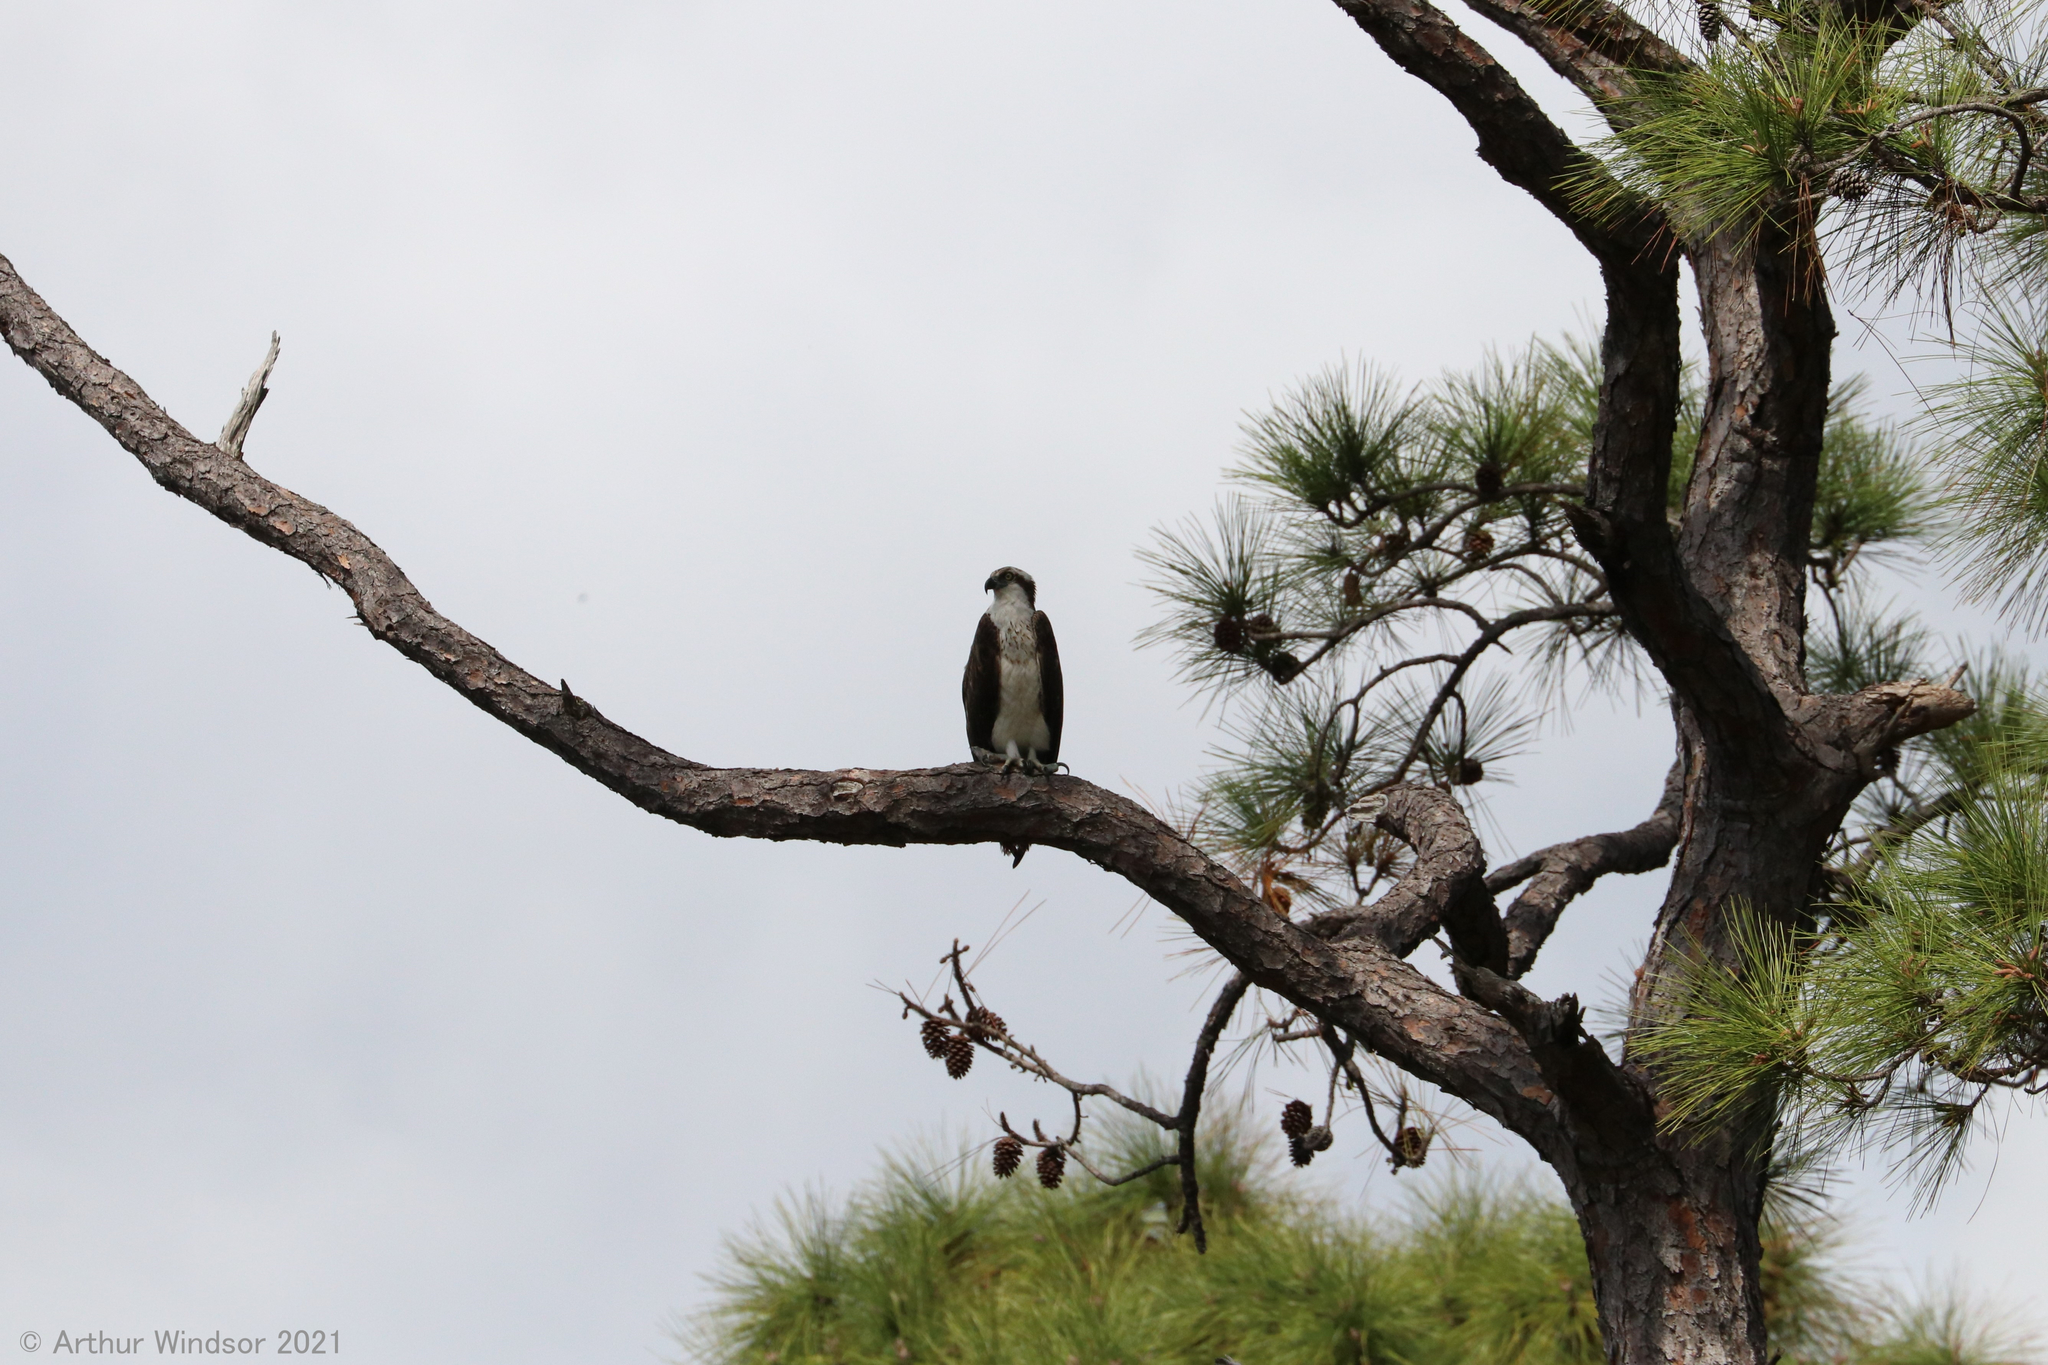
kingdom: Animalia
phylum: Chordata
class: Aves
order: Accipitriformes
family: Pandionidae
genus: Pandion
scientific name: Pandion haliaetus
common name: Osprey
